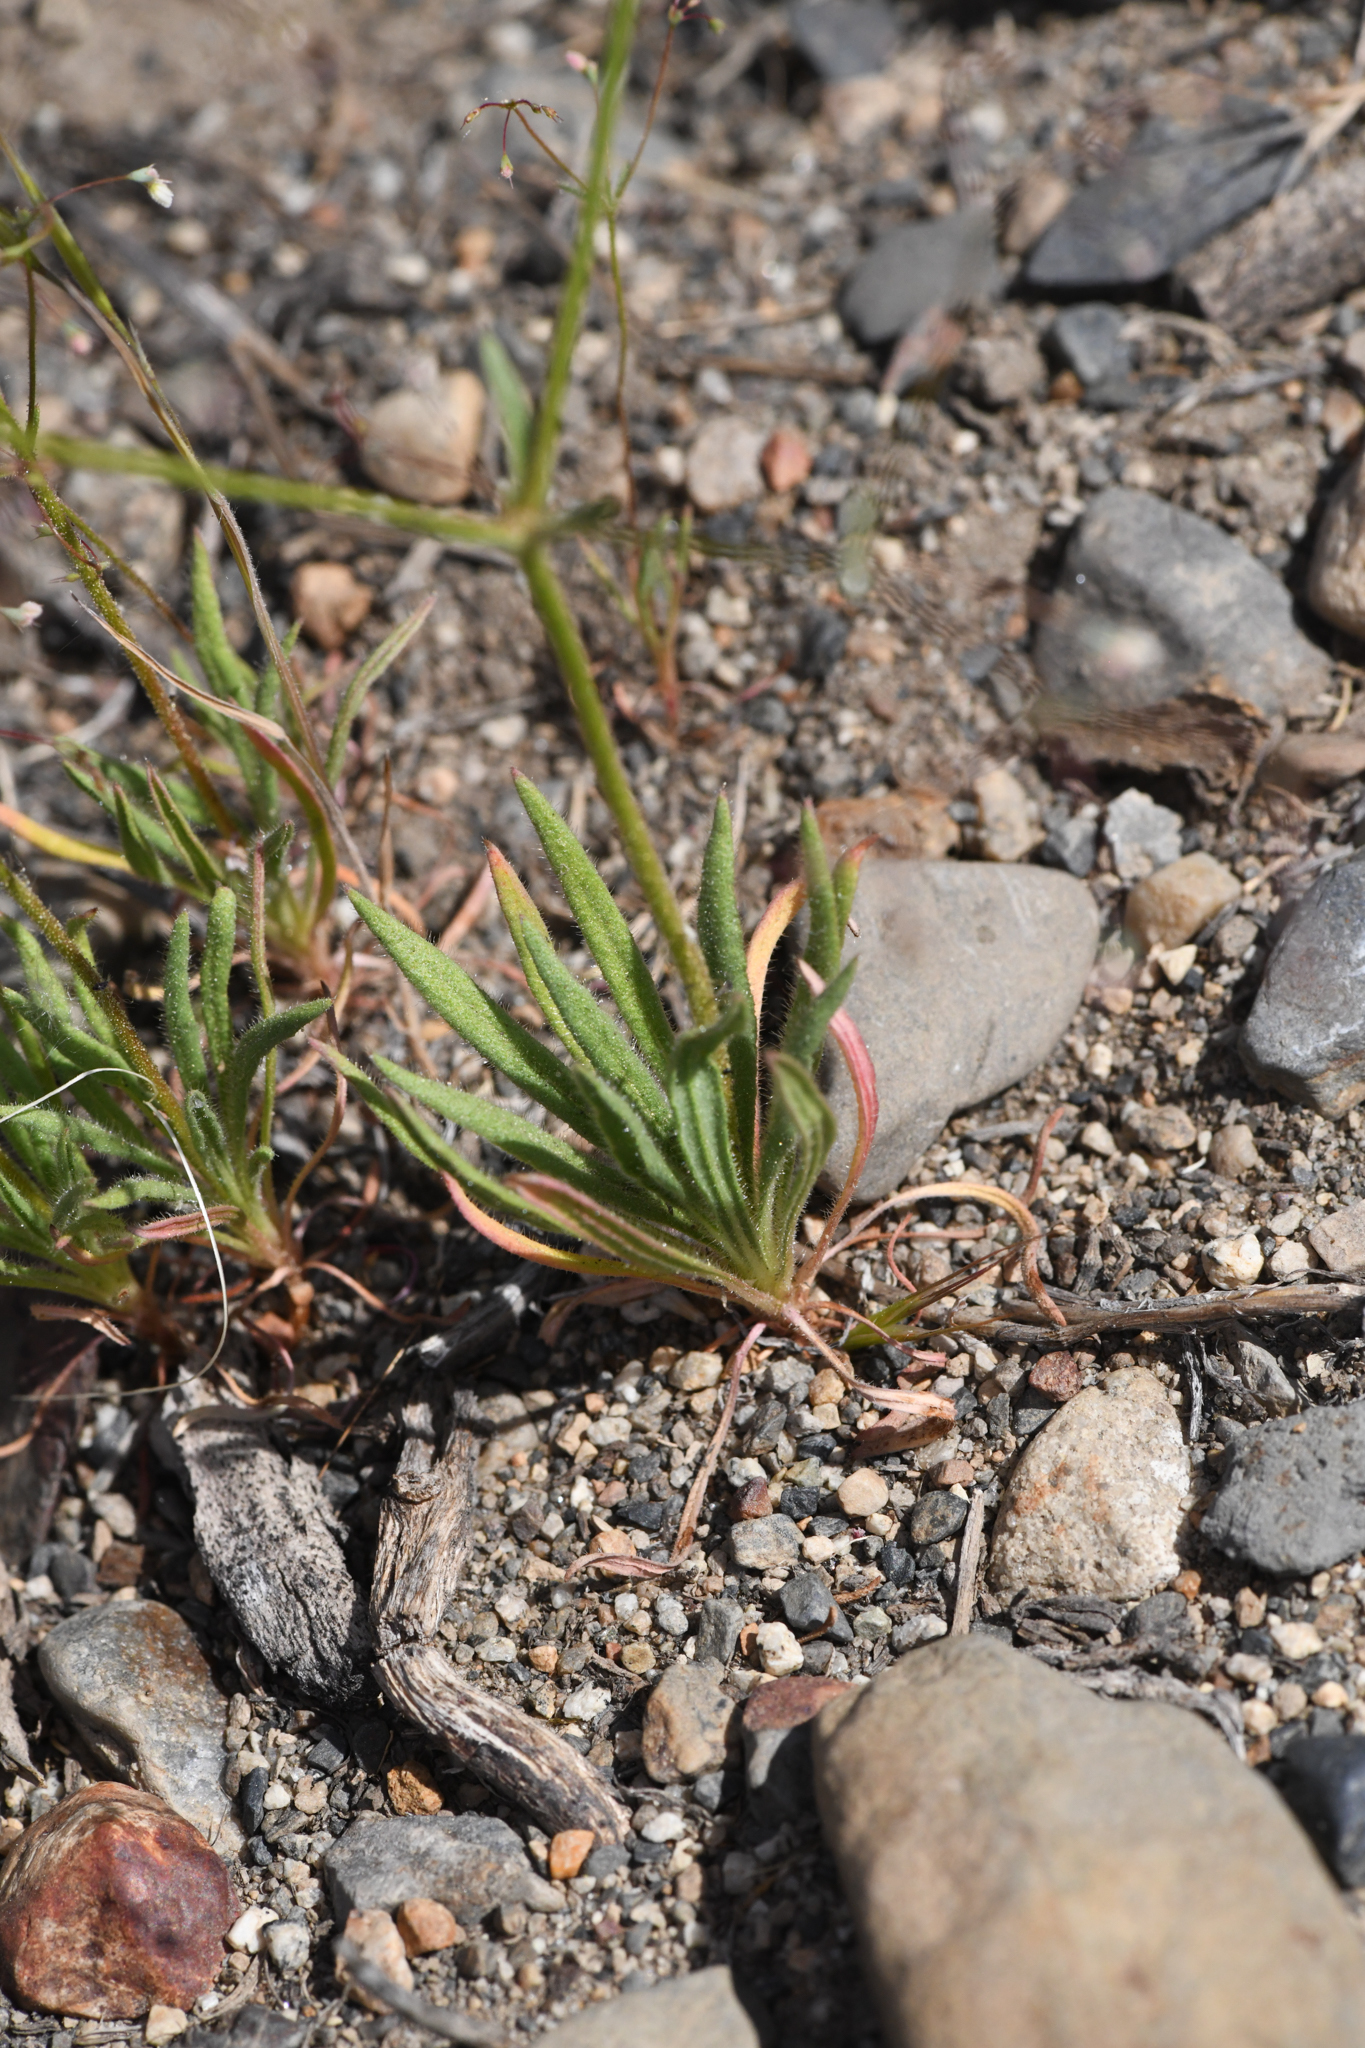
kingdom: Plantae
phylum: Tracheophyta
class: Magnoliopsida
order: Caryophyllales
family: Polygonaceae
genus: Oxytheca
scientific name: Oxytheca dendroidea
